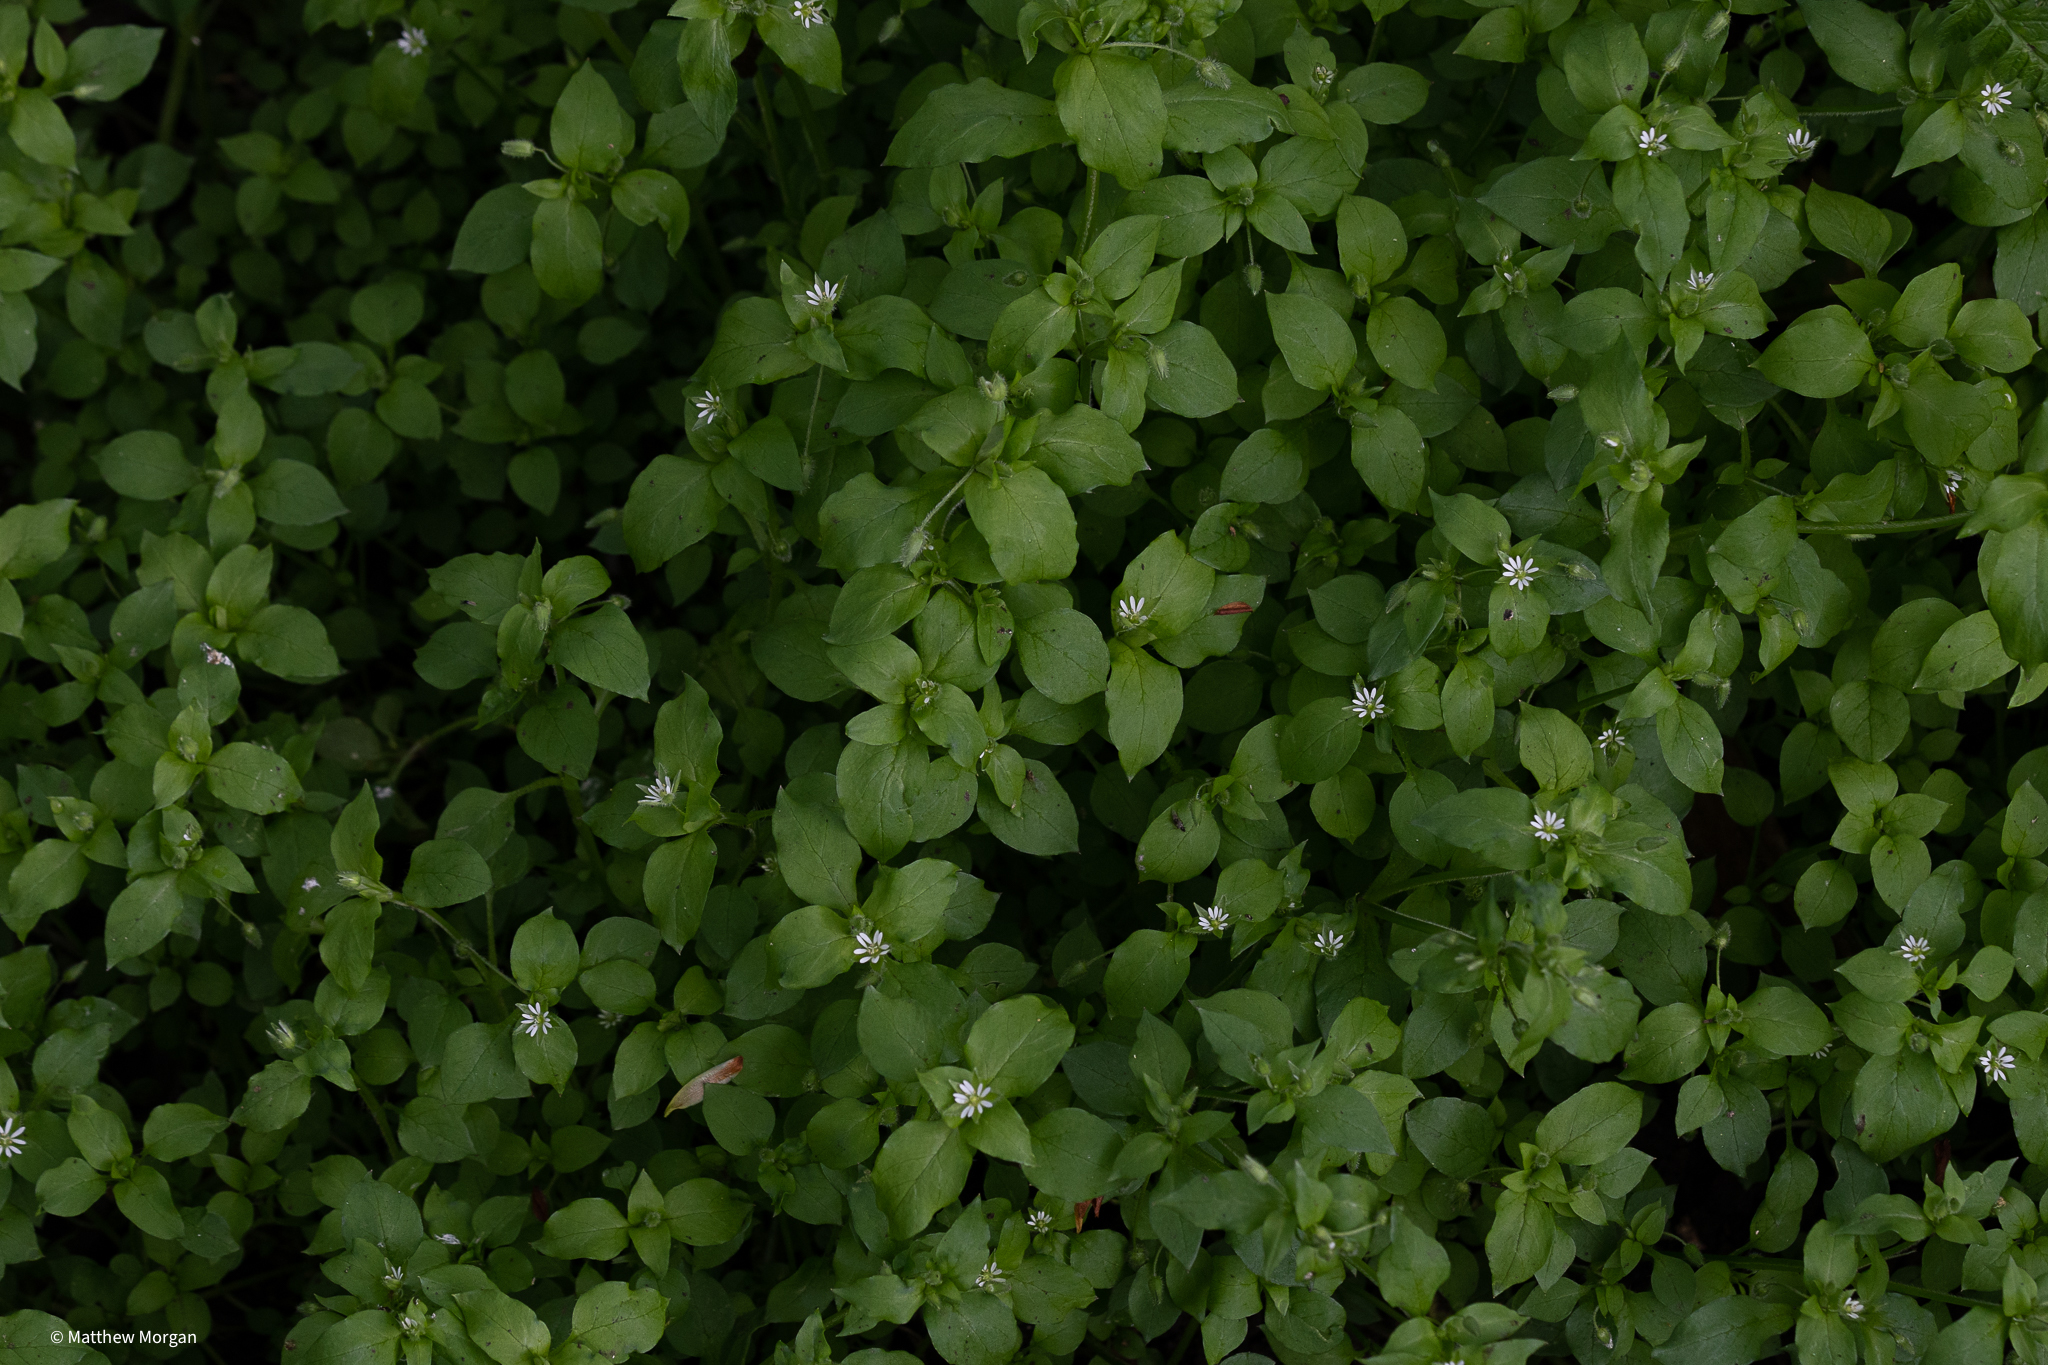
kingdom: Plantae
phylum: Tracheophyta
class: Magnoliopsida
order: Caryophyllales
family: Caryophyllaceae
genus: Stellaria
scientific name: Stellaria media
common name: Common chickweed
